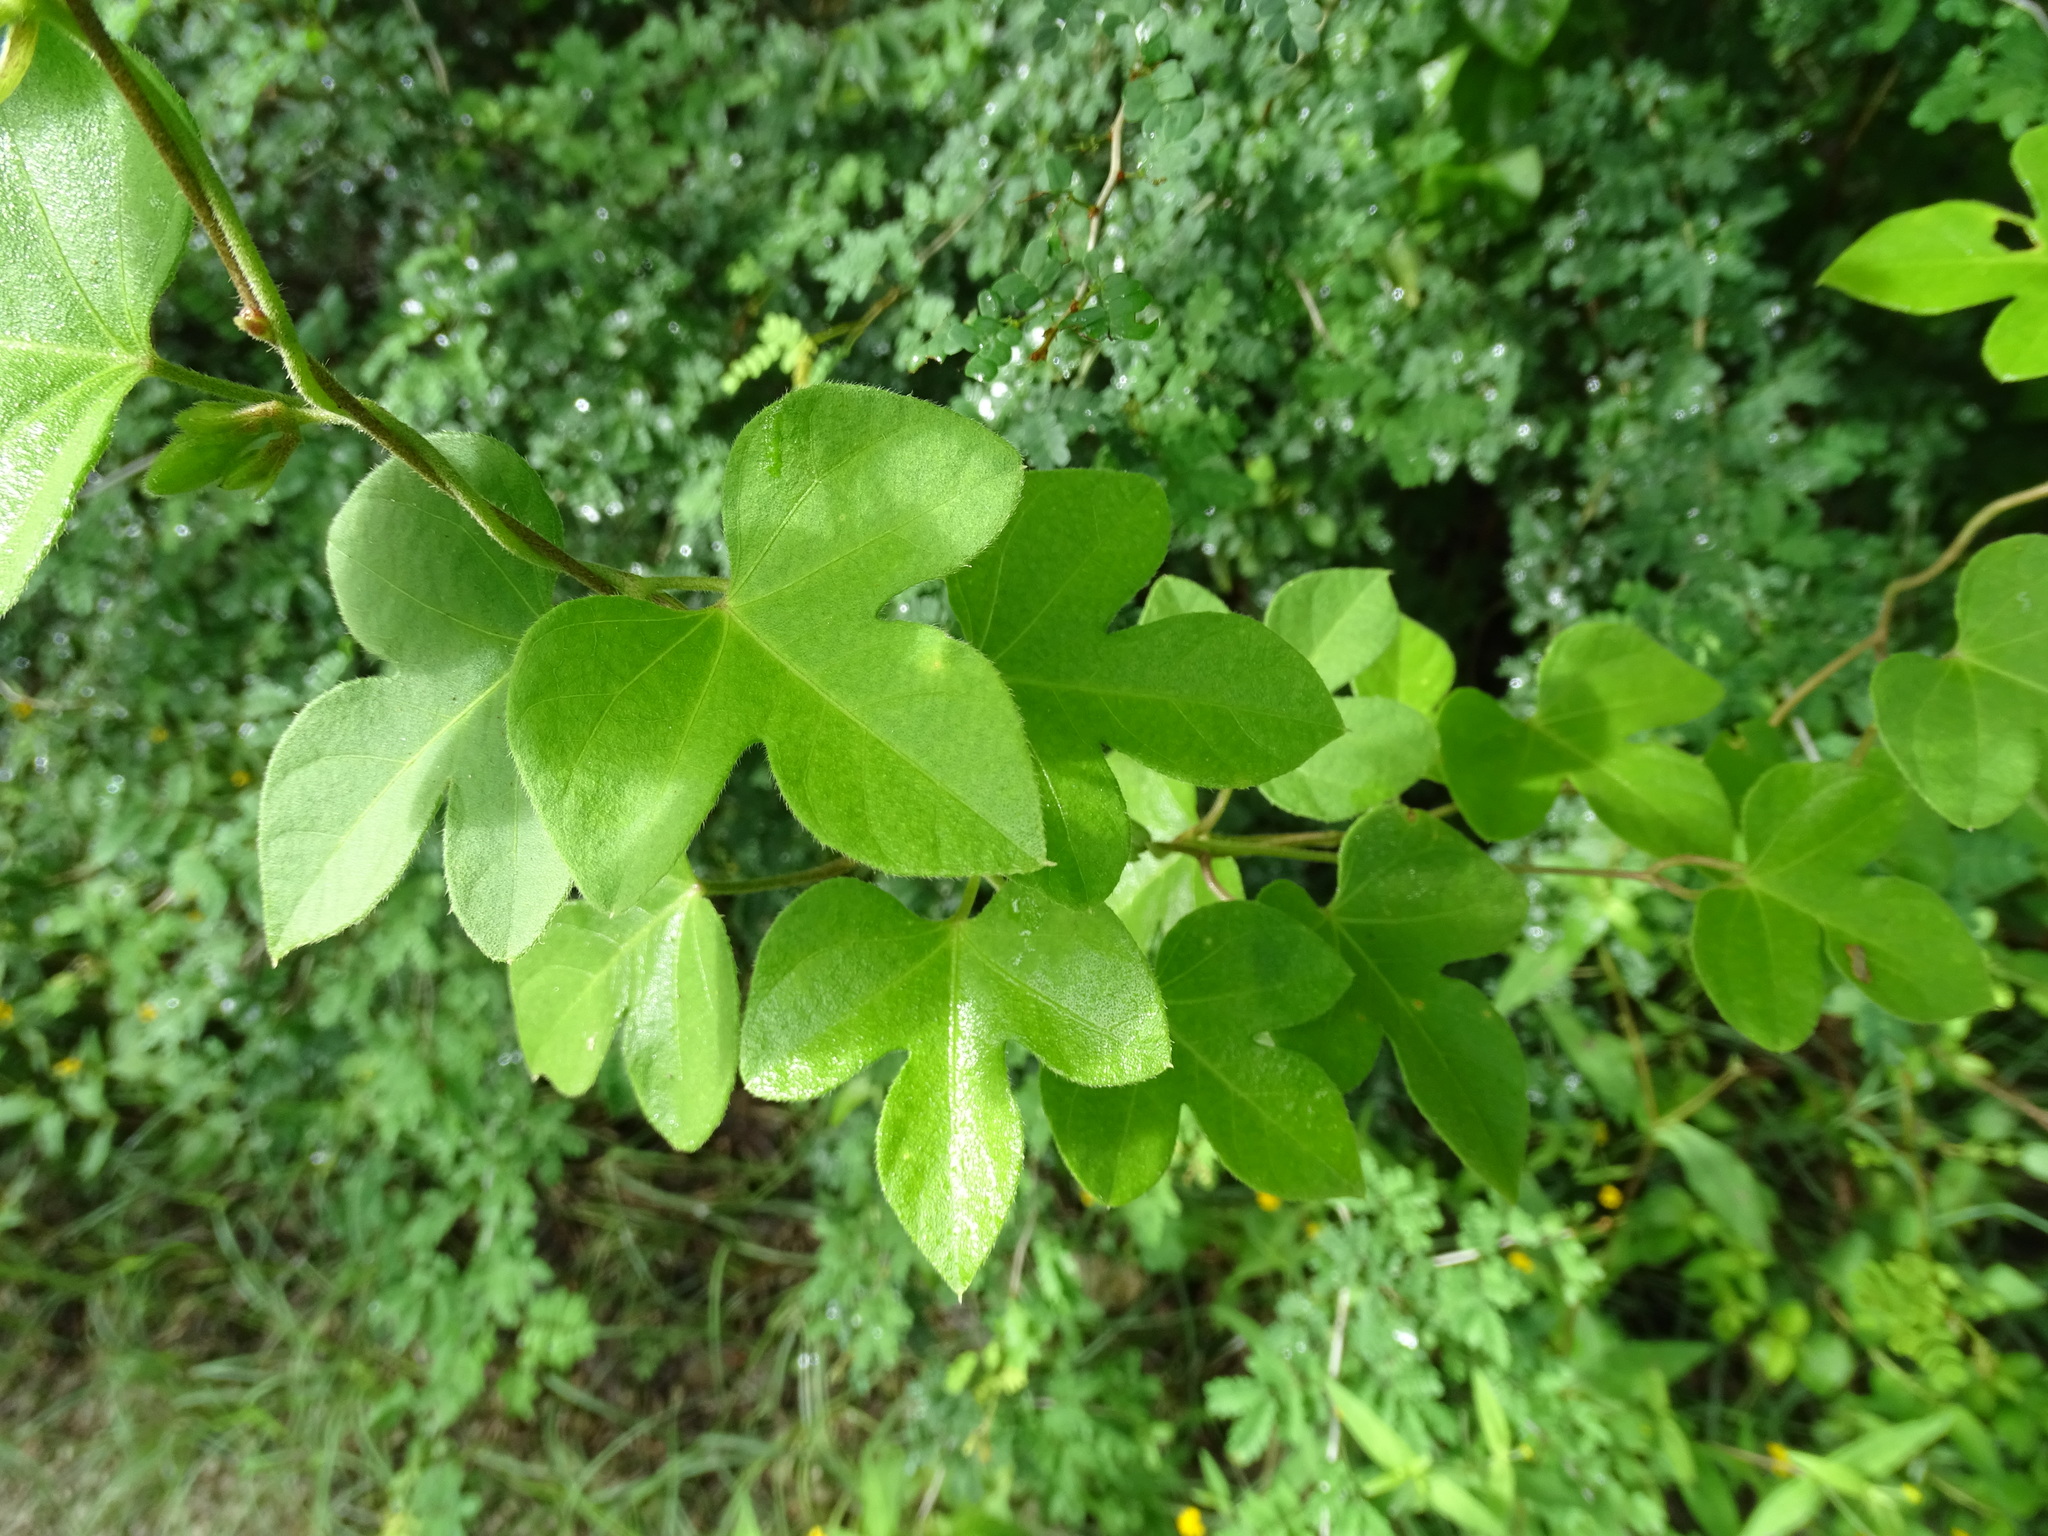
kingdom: Plantae
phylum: Tracheophyta
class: Magnoliopsida
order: Solanales
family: Convolvulaceae
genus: Ipomoea
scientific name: Ipomoea peteri
